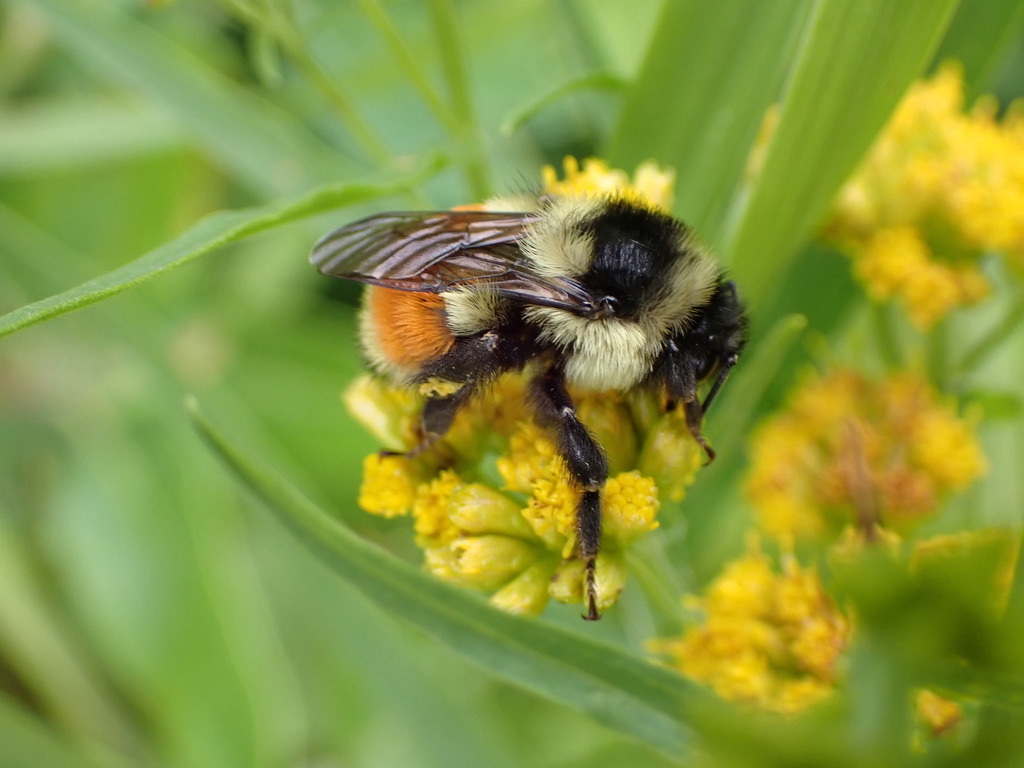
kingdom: Animalia
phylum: Arthropoda
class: Insecta
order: Hymenoptera
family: Apidae
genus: Bombus
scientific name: Bombus ternarius
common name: Tri-colored bumble bee
